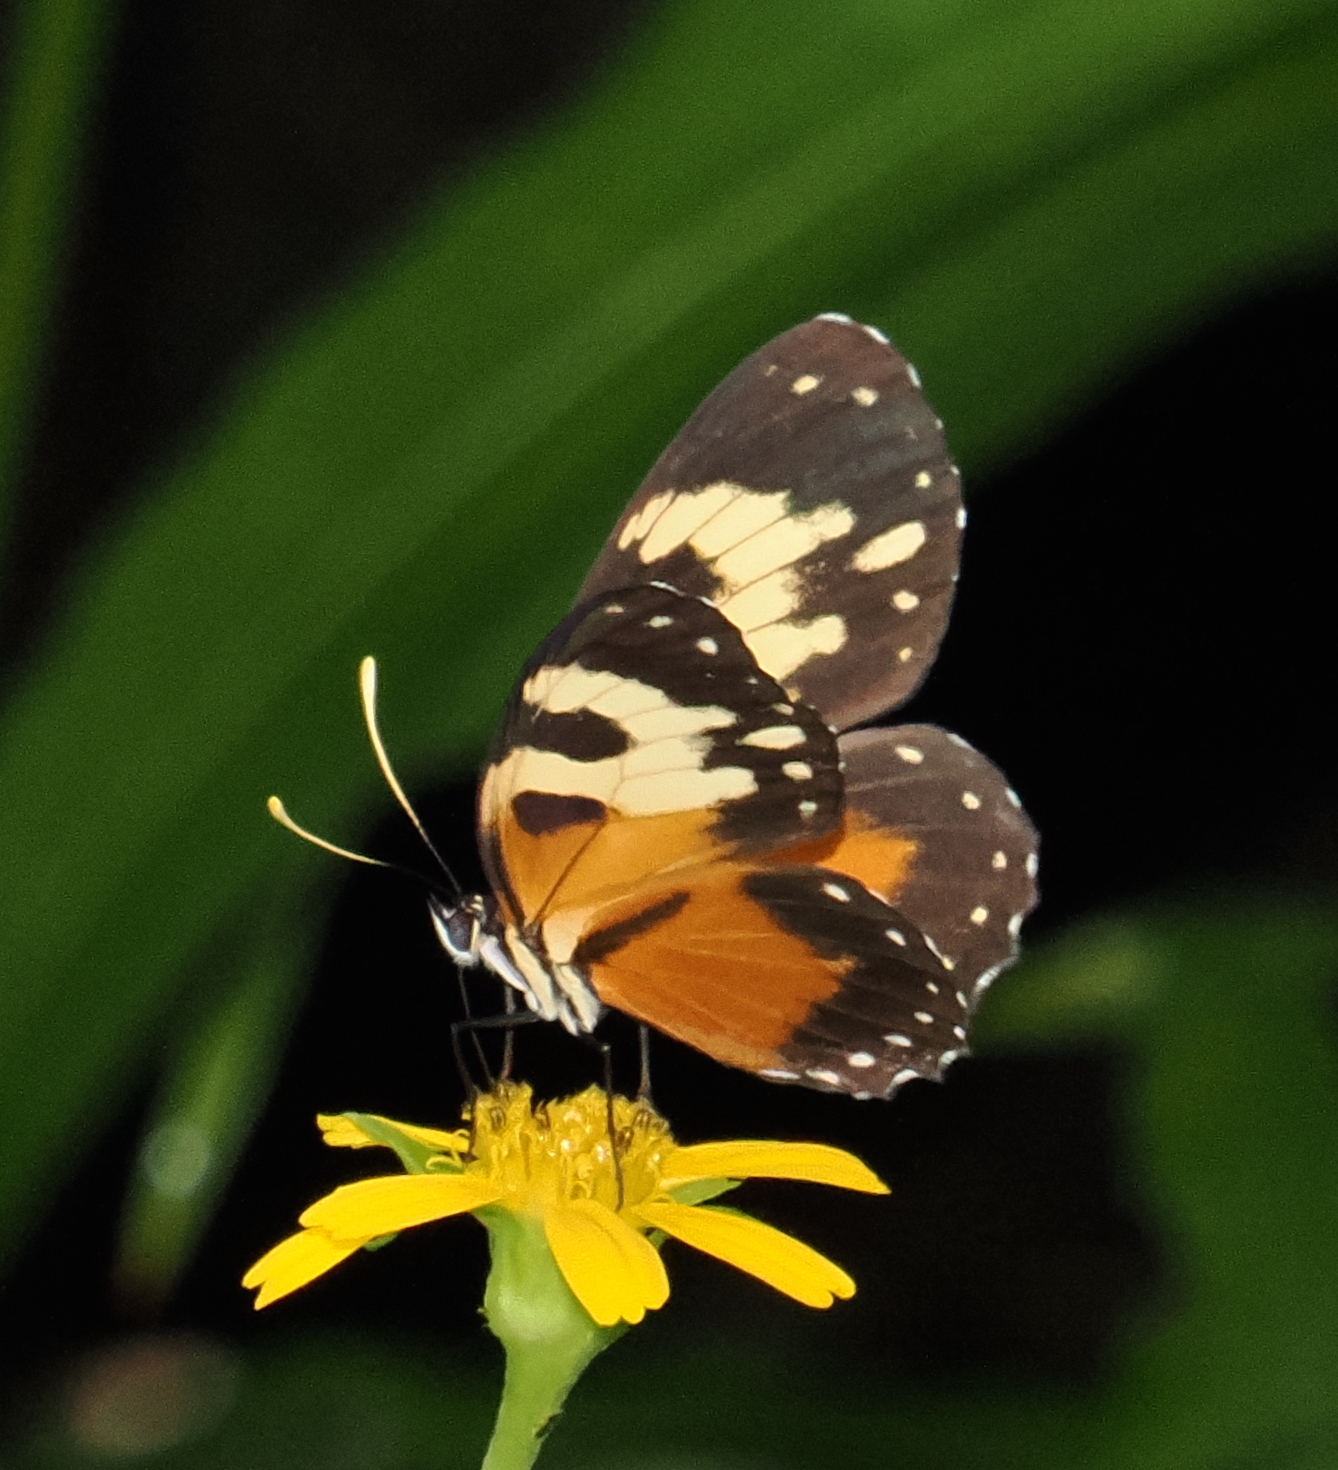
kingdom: Animalia
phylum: Arthropoda
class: Insecta
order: Lepidoptera
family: Nymphalidae
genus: Eresia
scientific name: Eresia ithomioides
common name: Variable crescent
